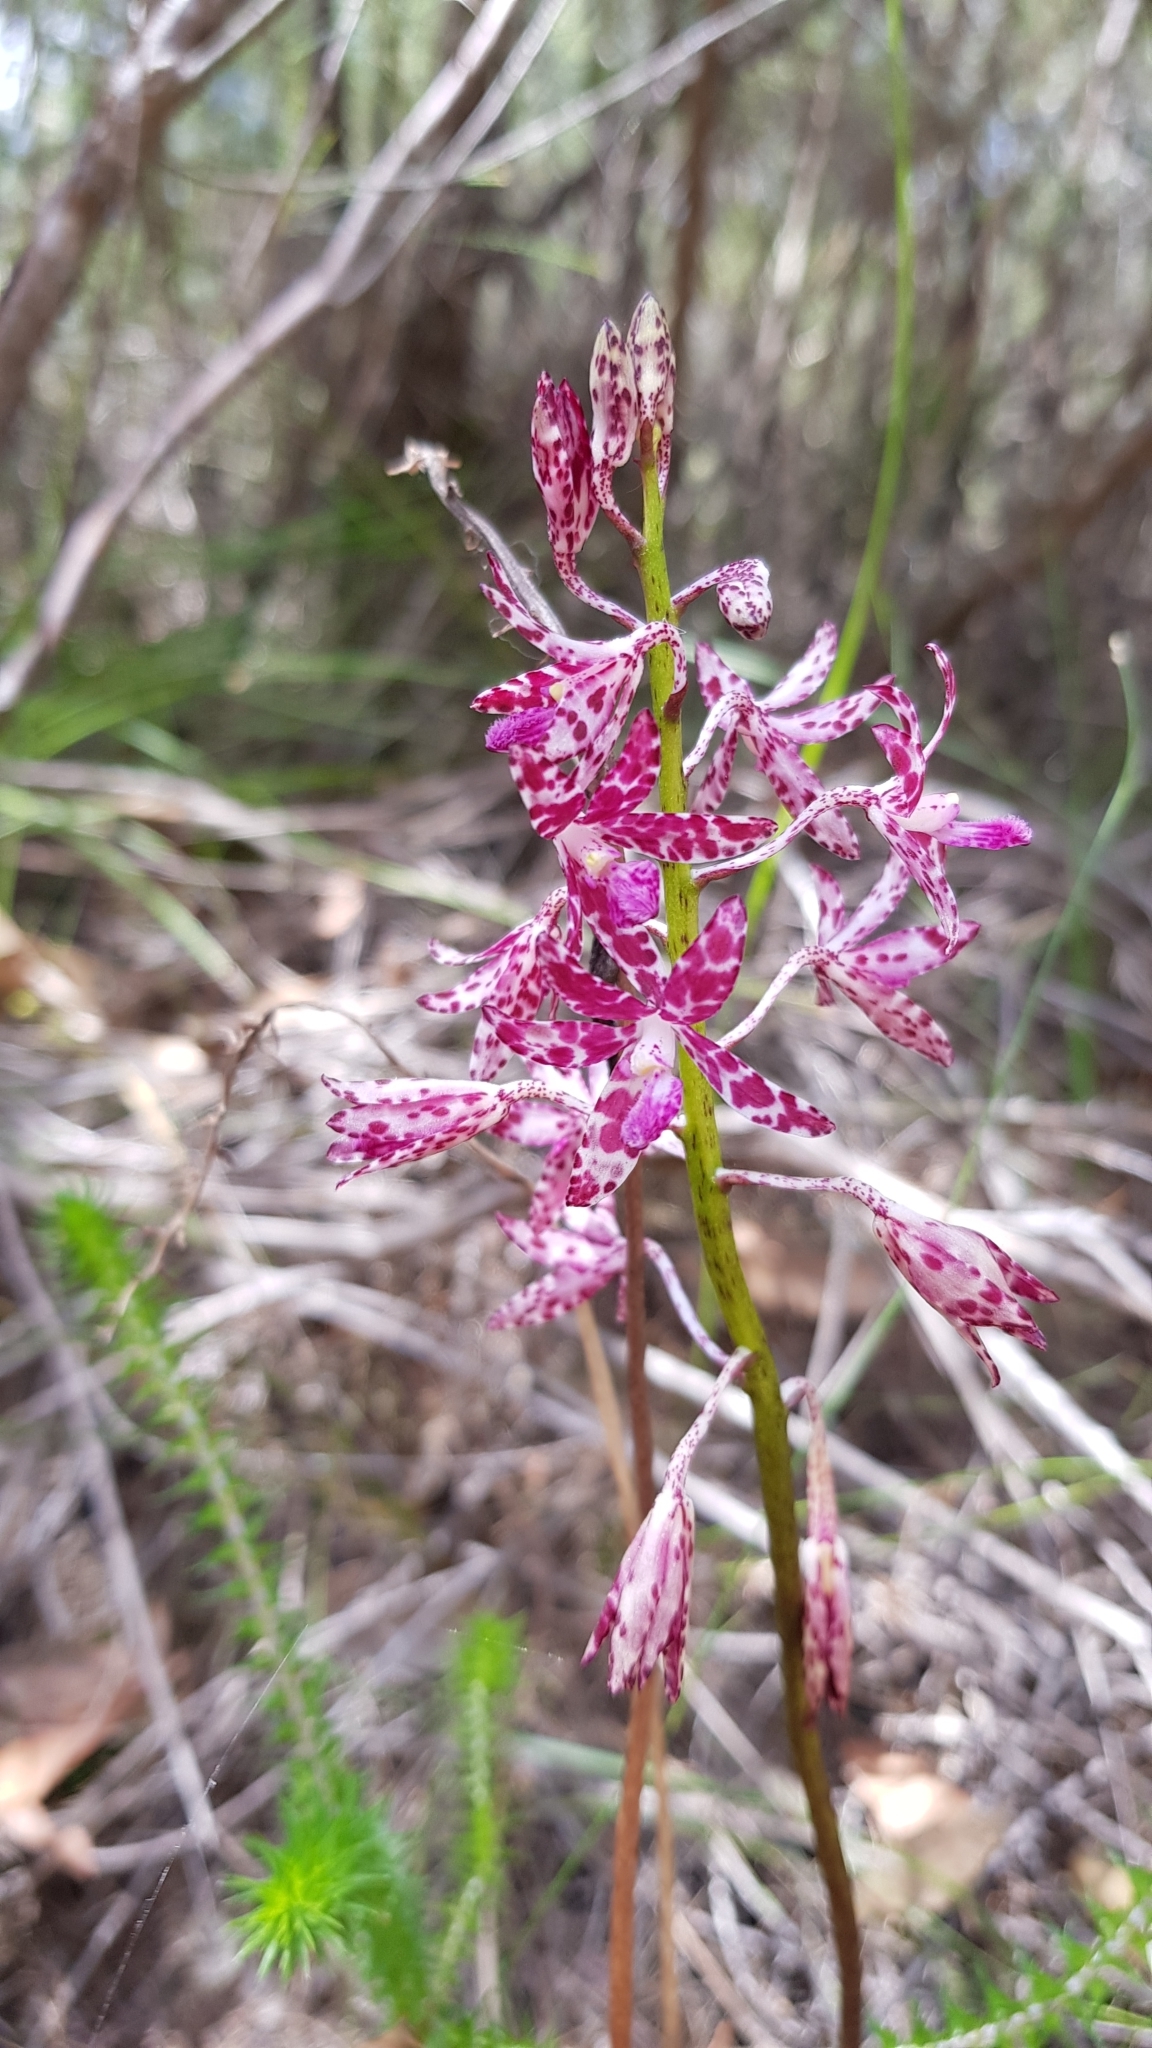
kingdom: Plantae
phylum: Tracheophyta
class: Liliopsida
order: Asparagales
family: Orchidaceae
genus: Dipodium
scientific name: Dipodium variegatum
